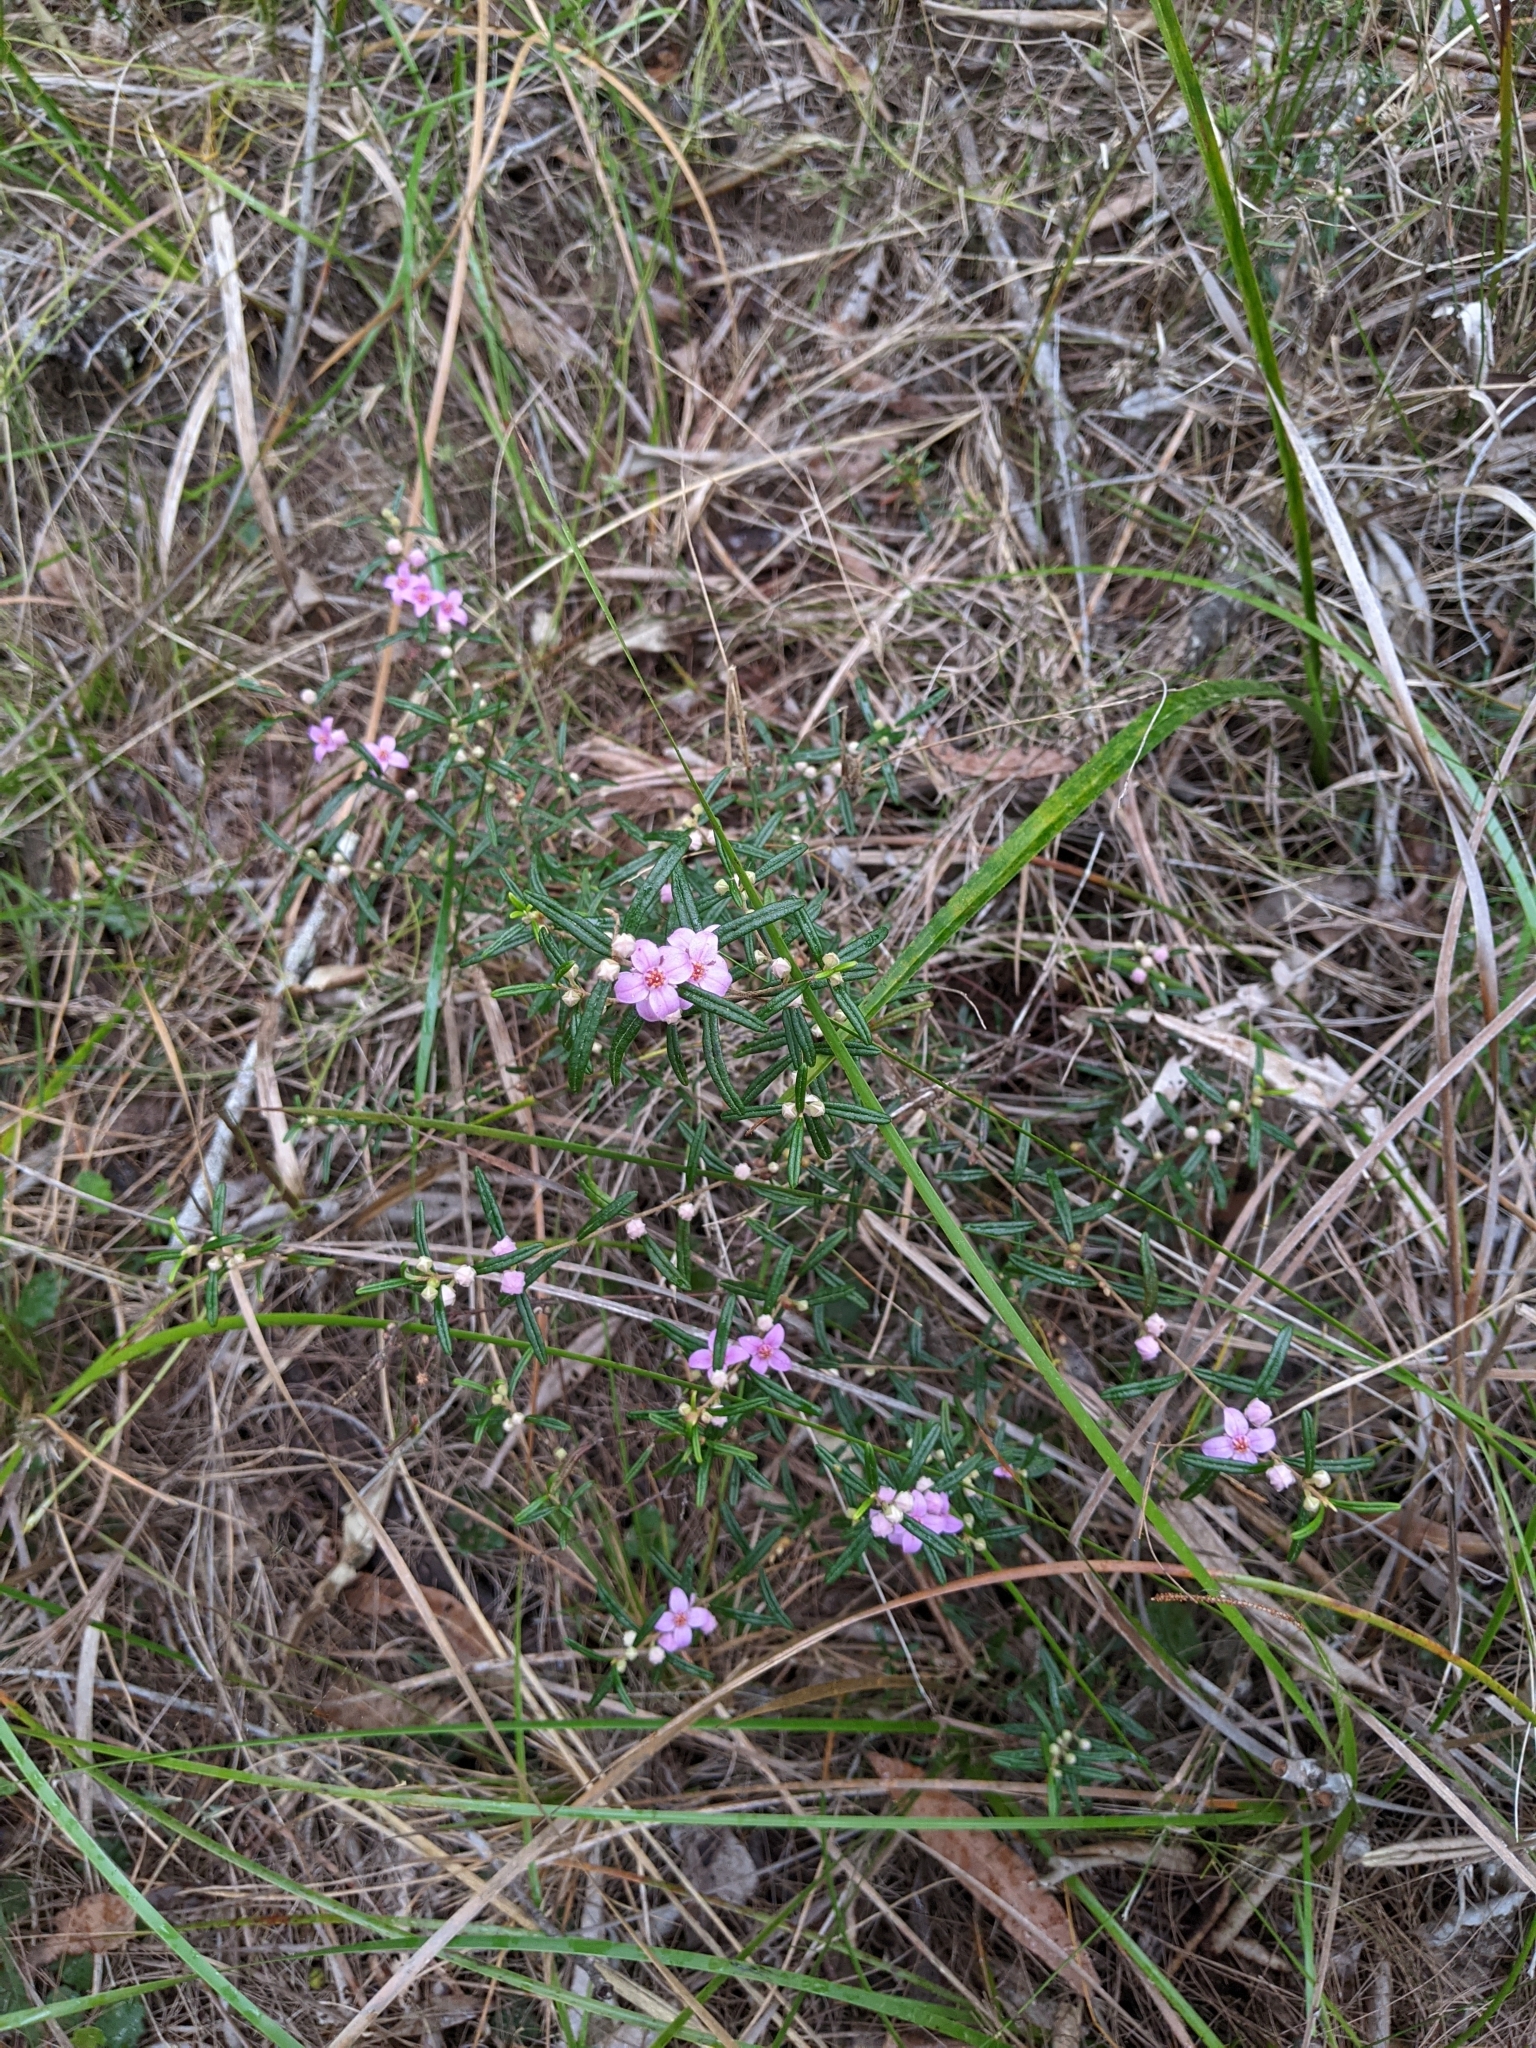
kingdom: Plantae
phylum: Tracheophyta
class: Magnoliopsida
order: Sapindales
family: Rutaceae
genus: Boronia
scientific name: Boronia rosmarinifolia
